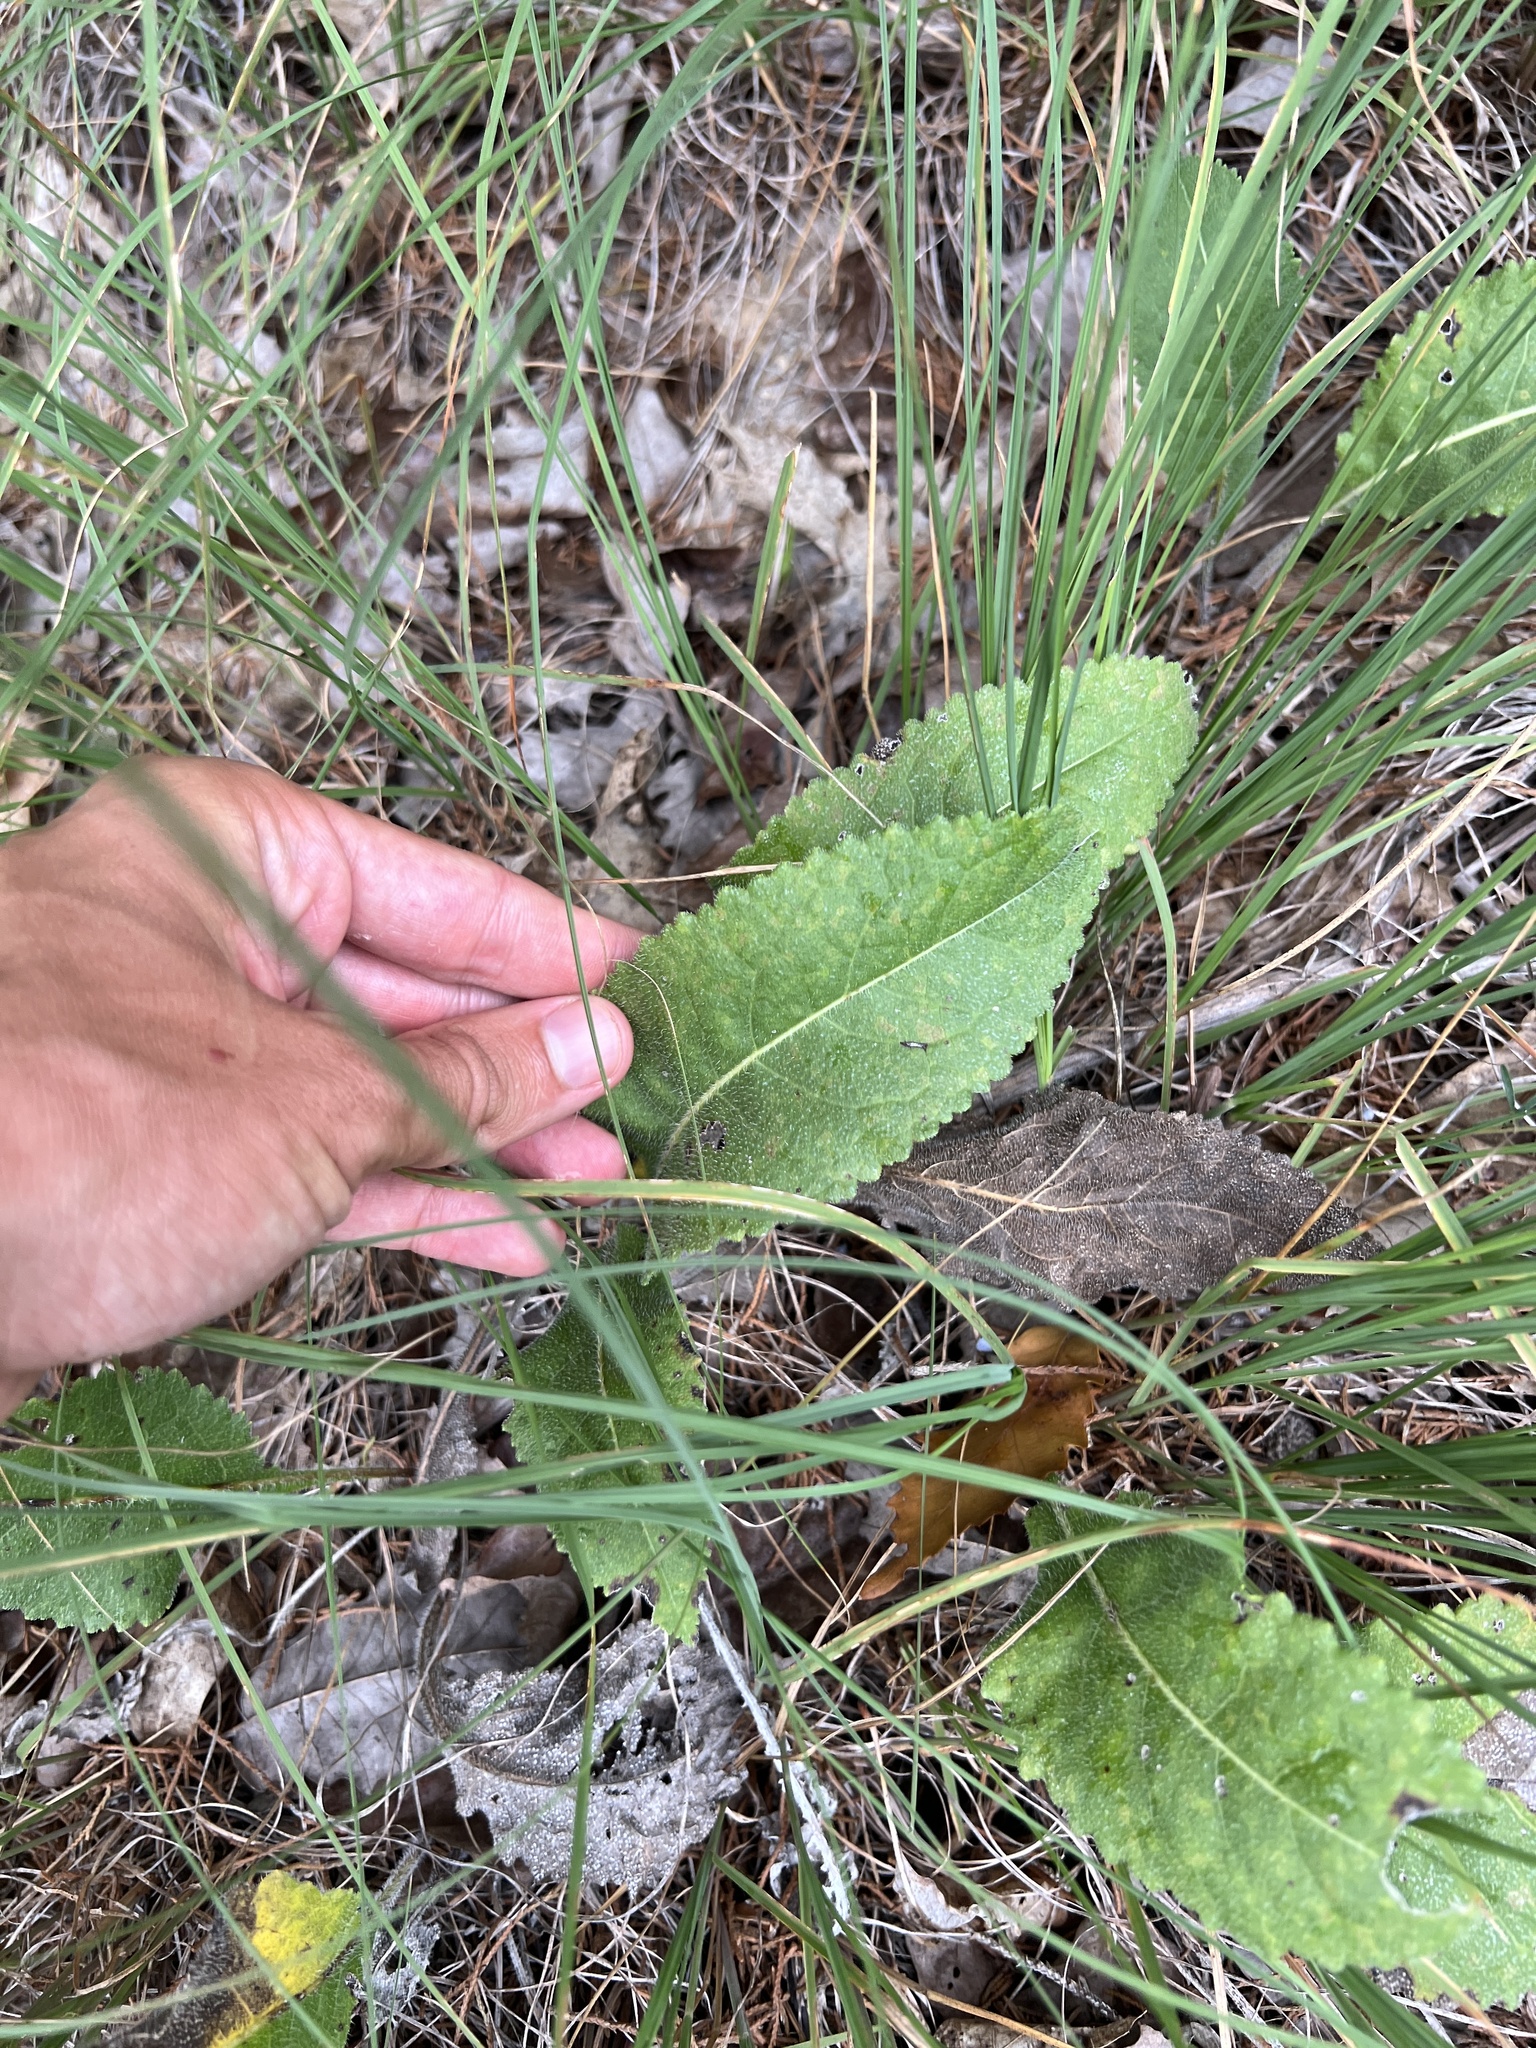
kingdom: Plantae
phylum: Tracheophyta
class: Magnoliopsida
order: Asterales
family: Asteraceae
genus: Parthenium
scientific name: Parthenium hispidum
